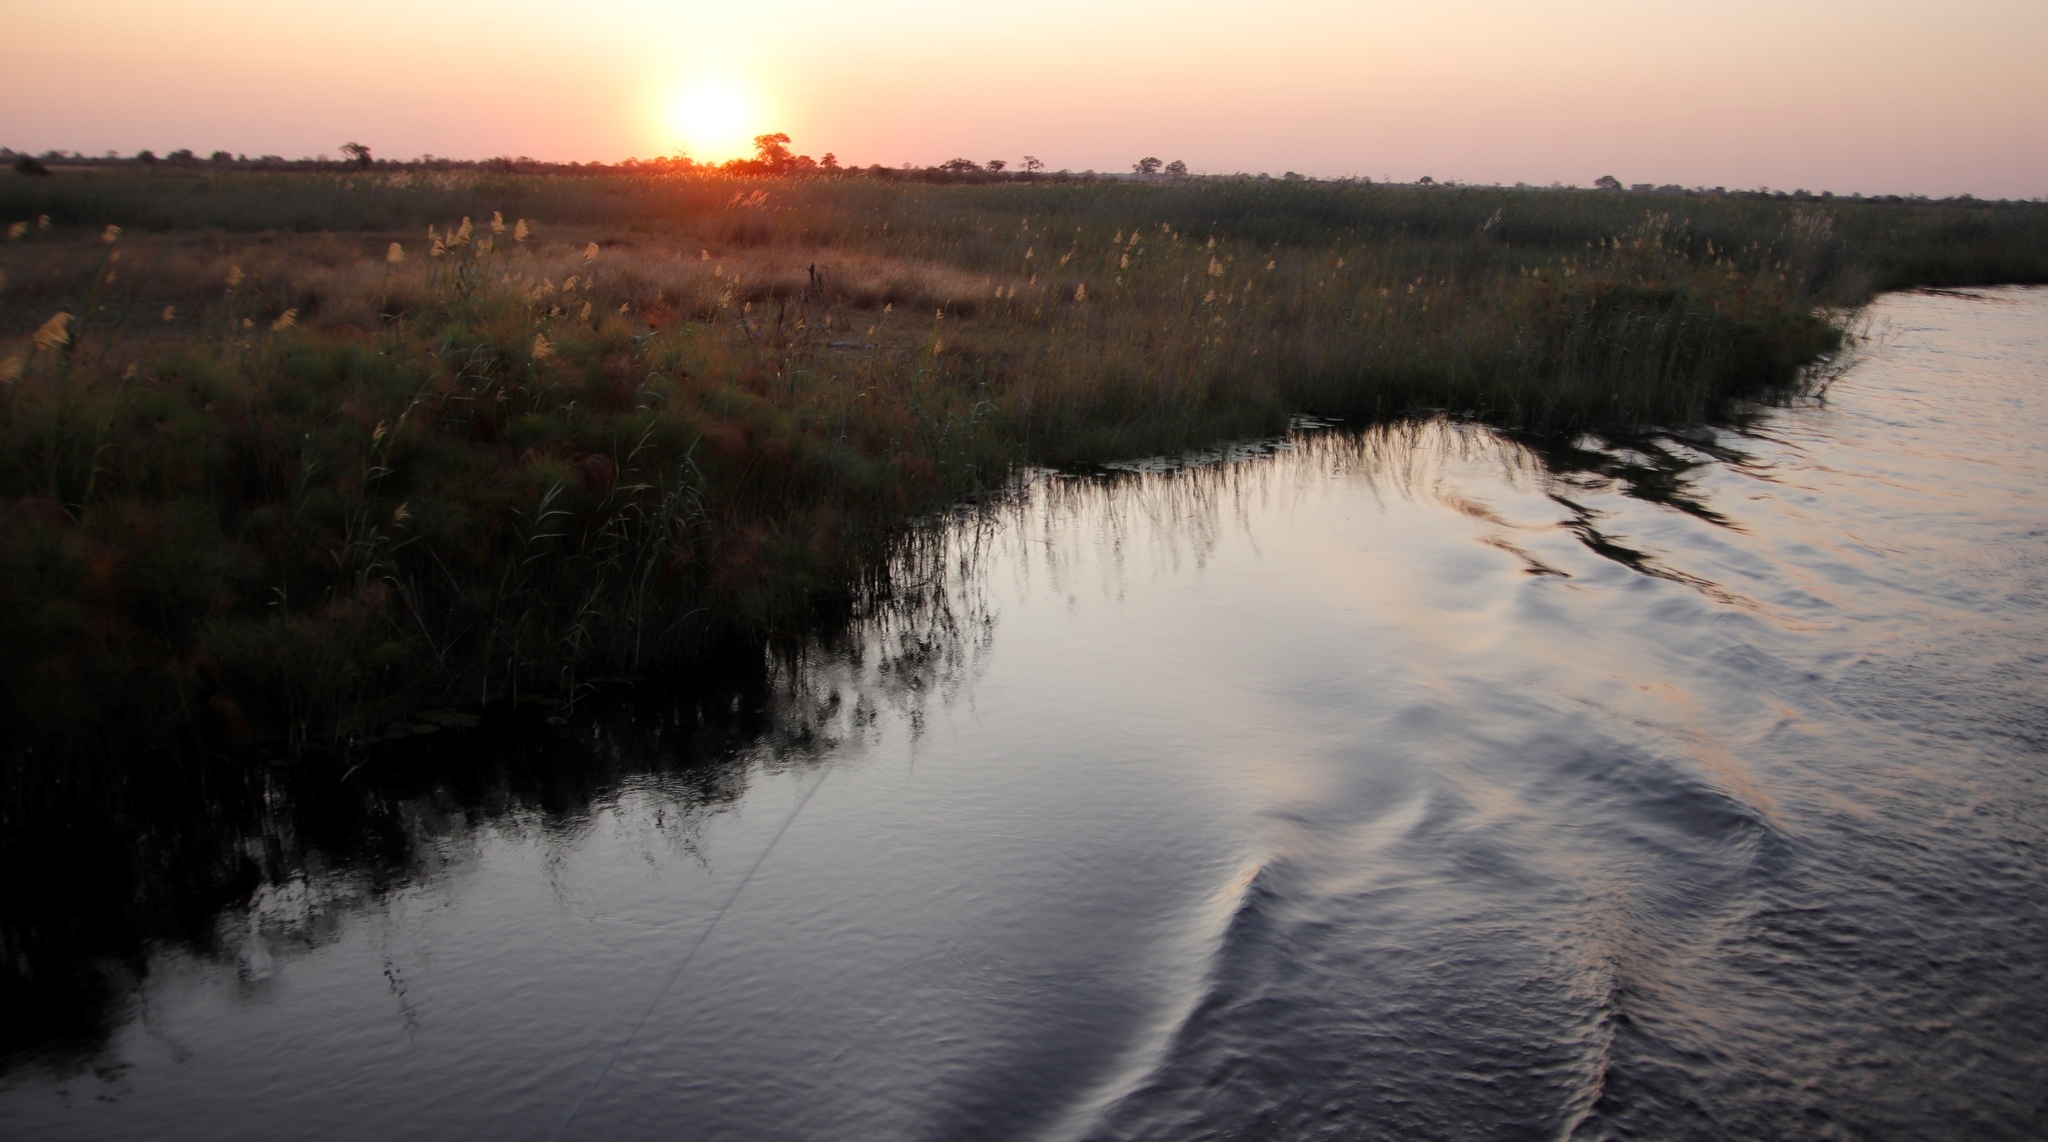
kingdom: Plantae
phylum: Tracheophyta
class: Liliopsida
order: Poales
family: Poaceae
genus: Phragmites
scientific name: Phragmites australis
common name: Common reed
